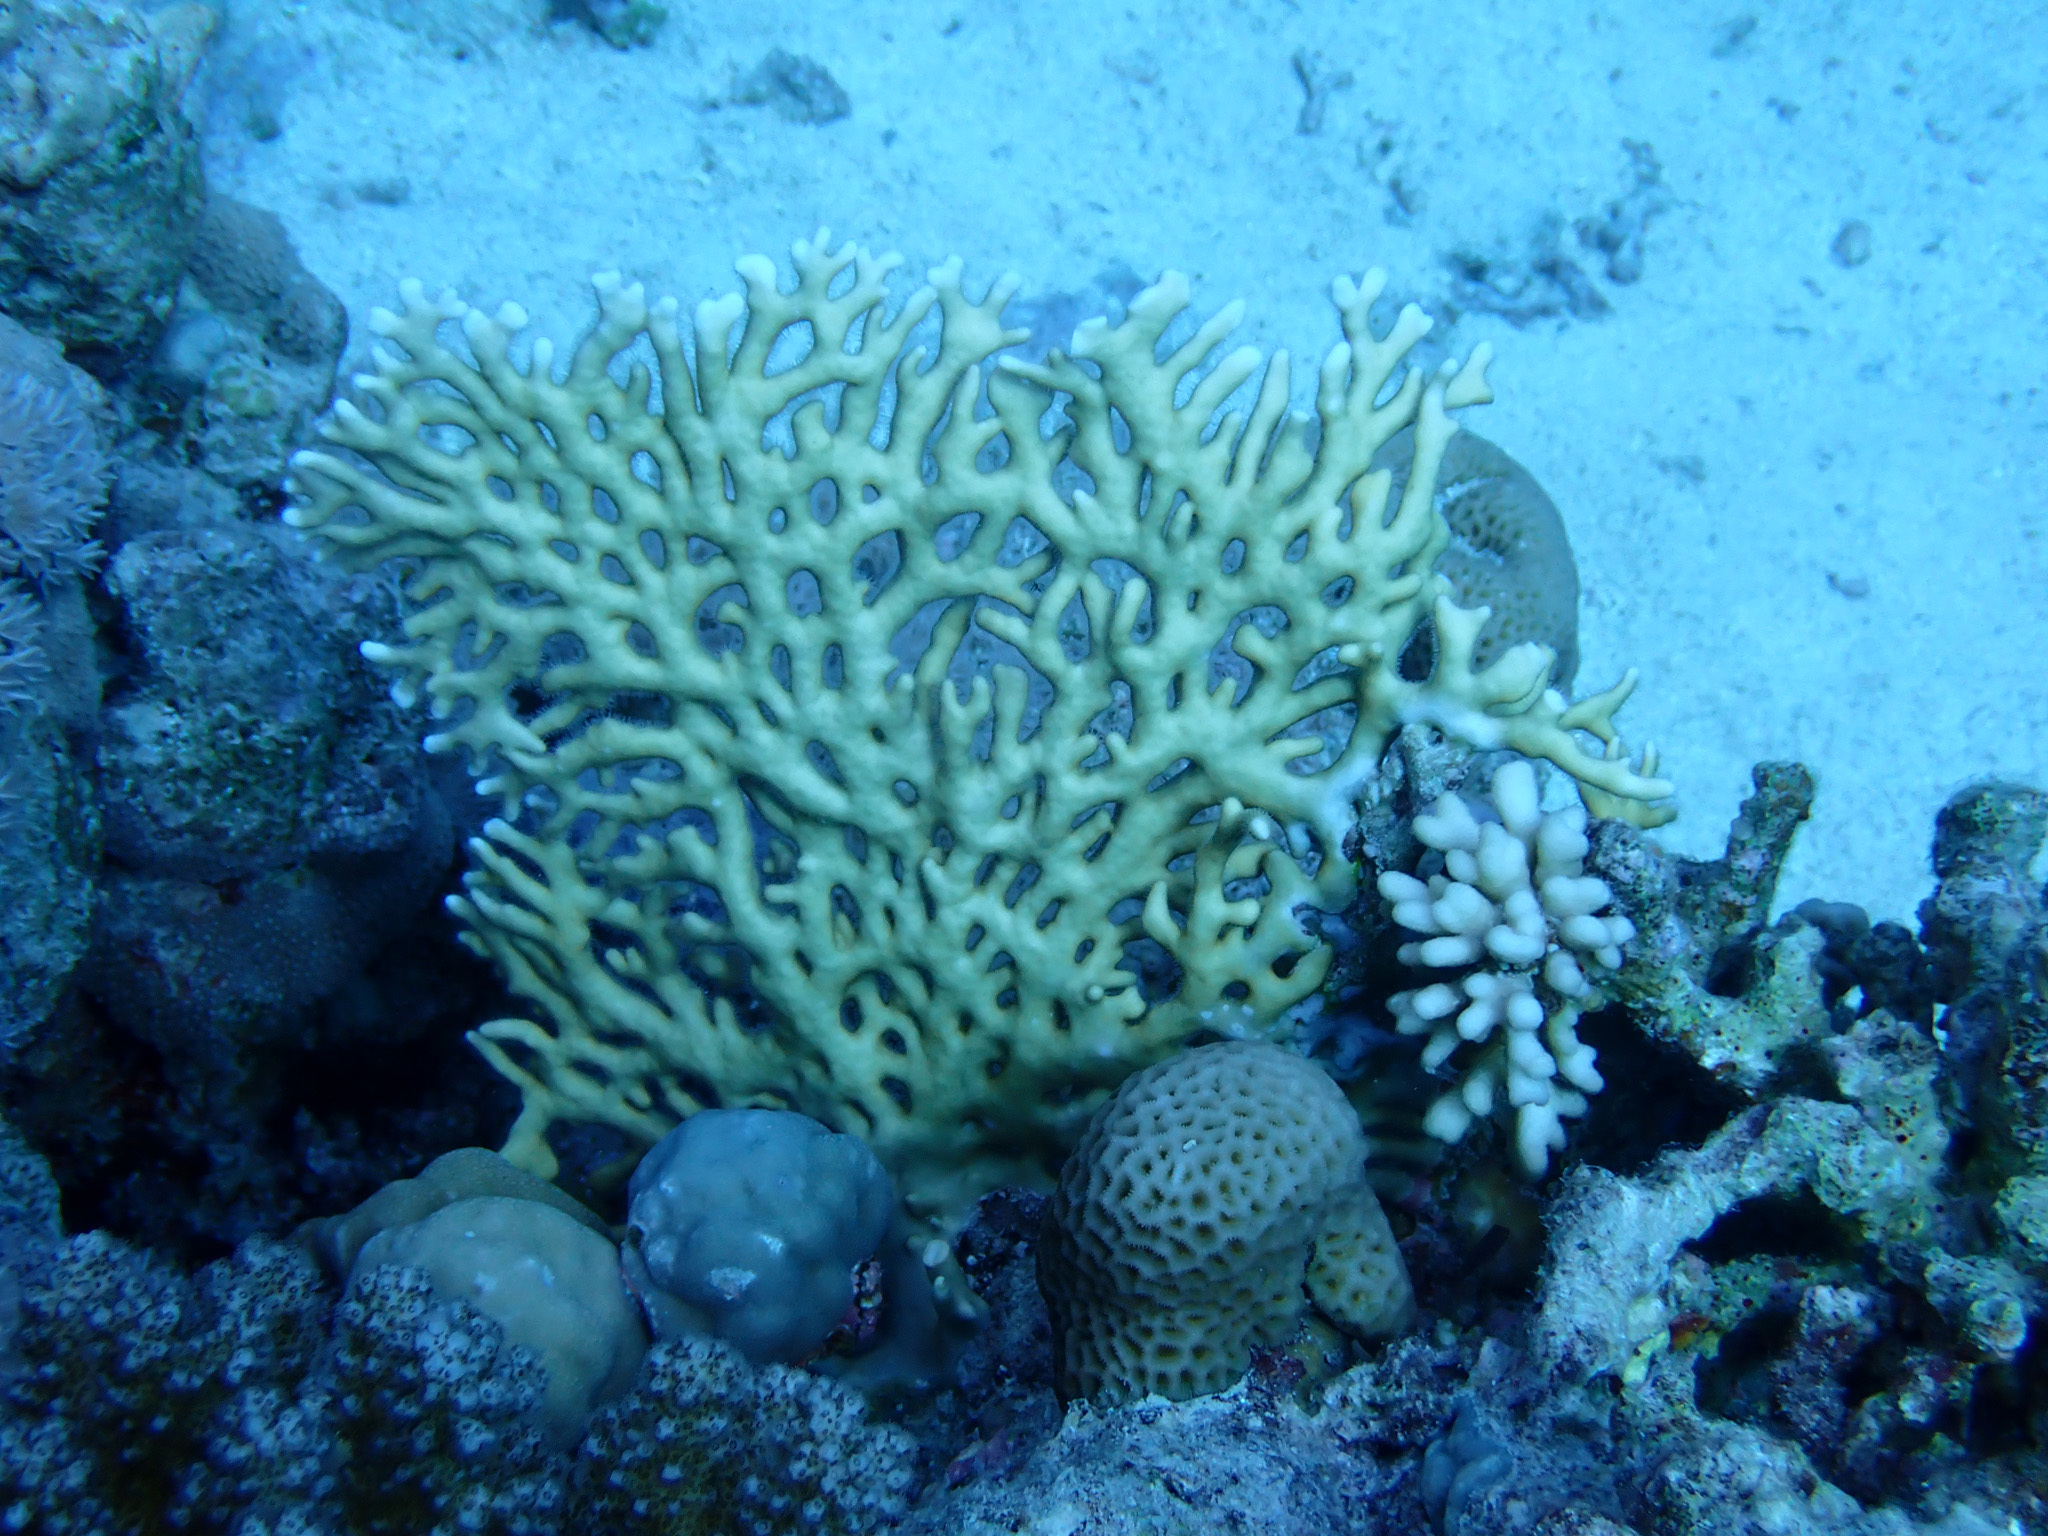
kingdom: Animalia
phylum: Cnidaria
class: Hydrozoa
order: Anthoathecata
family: Milleporidae
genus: Millepora
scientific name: Millepora dichotoma
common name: Ramified fire coral
